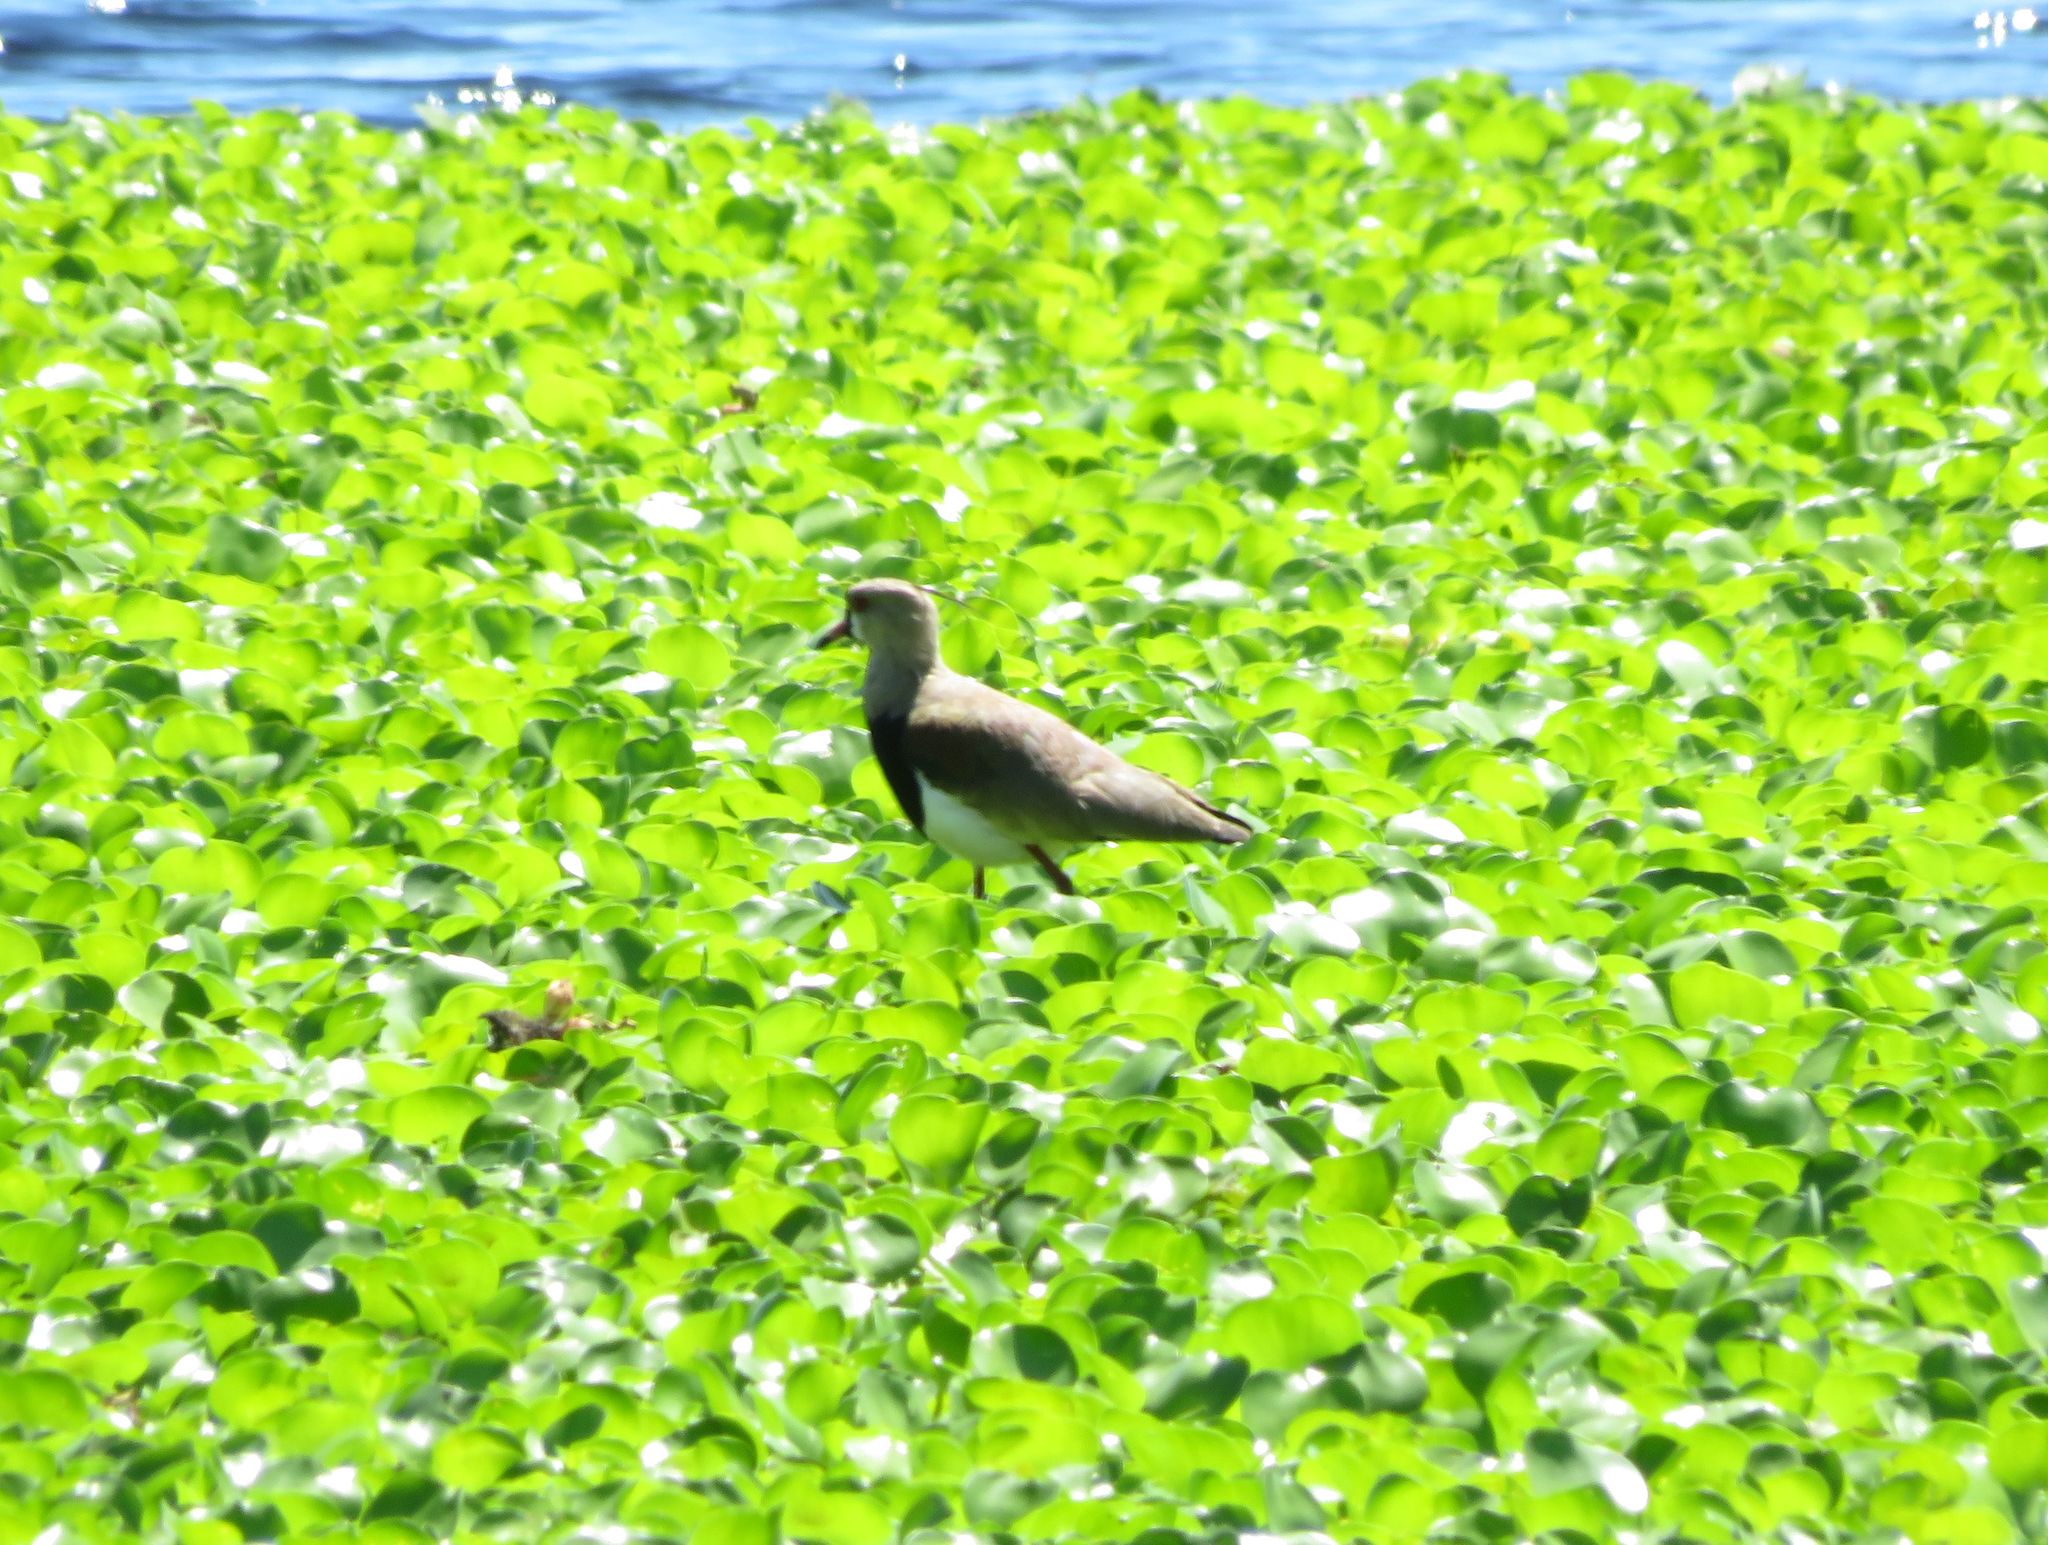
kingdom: Animalia
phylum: Chordata
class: Aves
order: Charadriiformes
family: Charadriidae
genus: Vanellus
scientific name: Vanellus chilensis
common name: Southern lapwing
